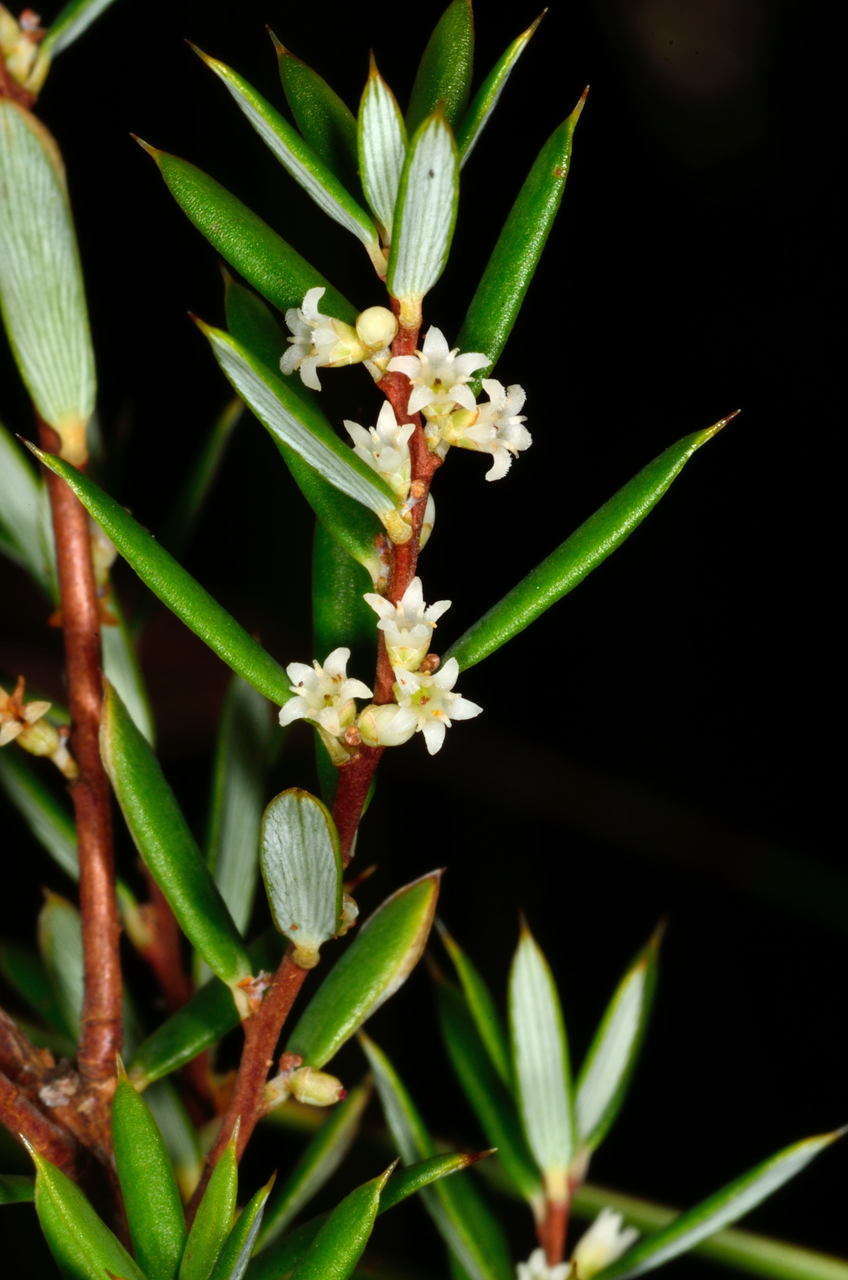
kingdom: Plantae
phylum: Tracheophyta
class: Magnoliopsida
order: Ericales
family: Ericaceae
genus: Monotoca
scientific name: Monotoca scoparia
